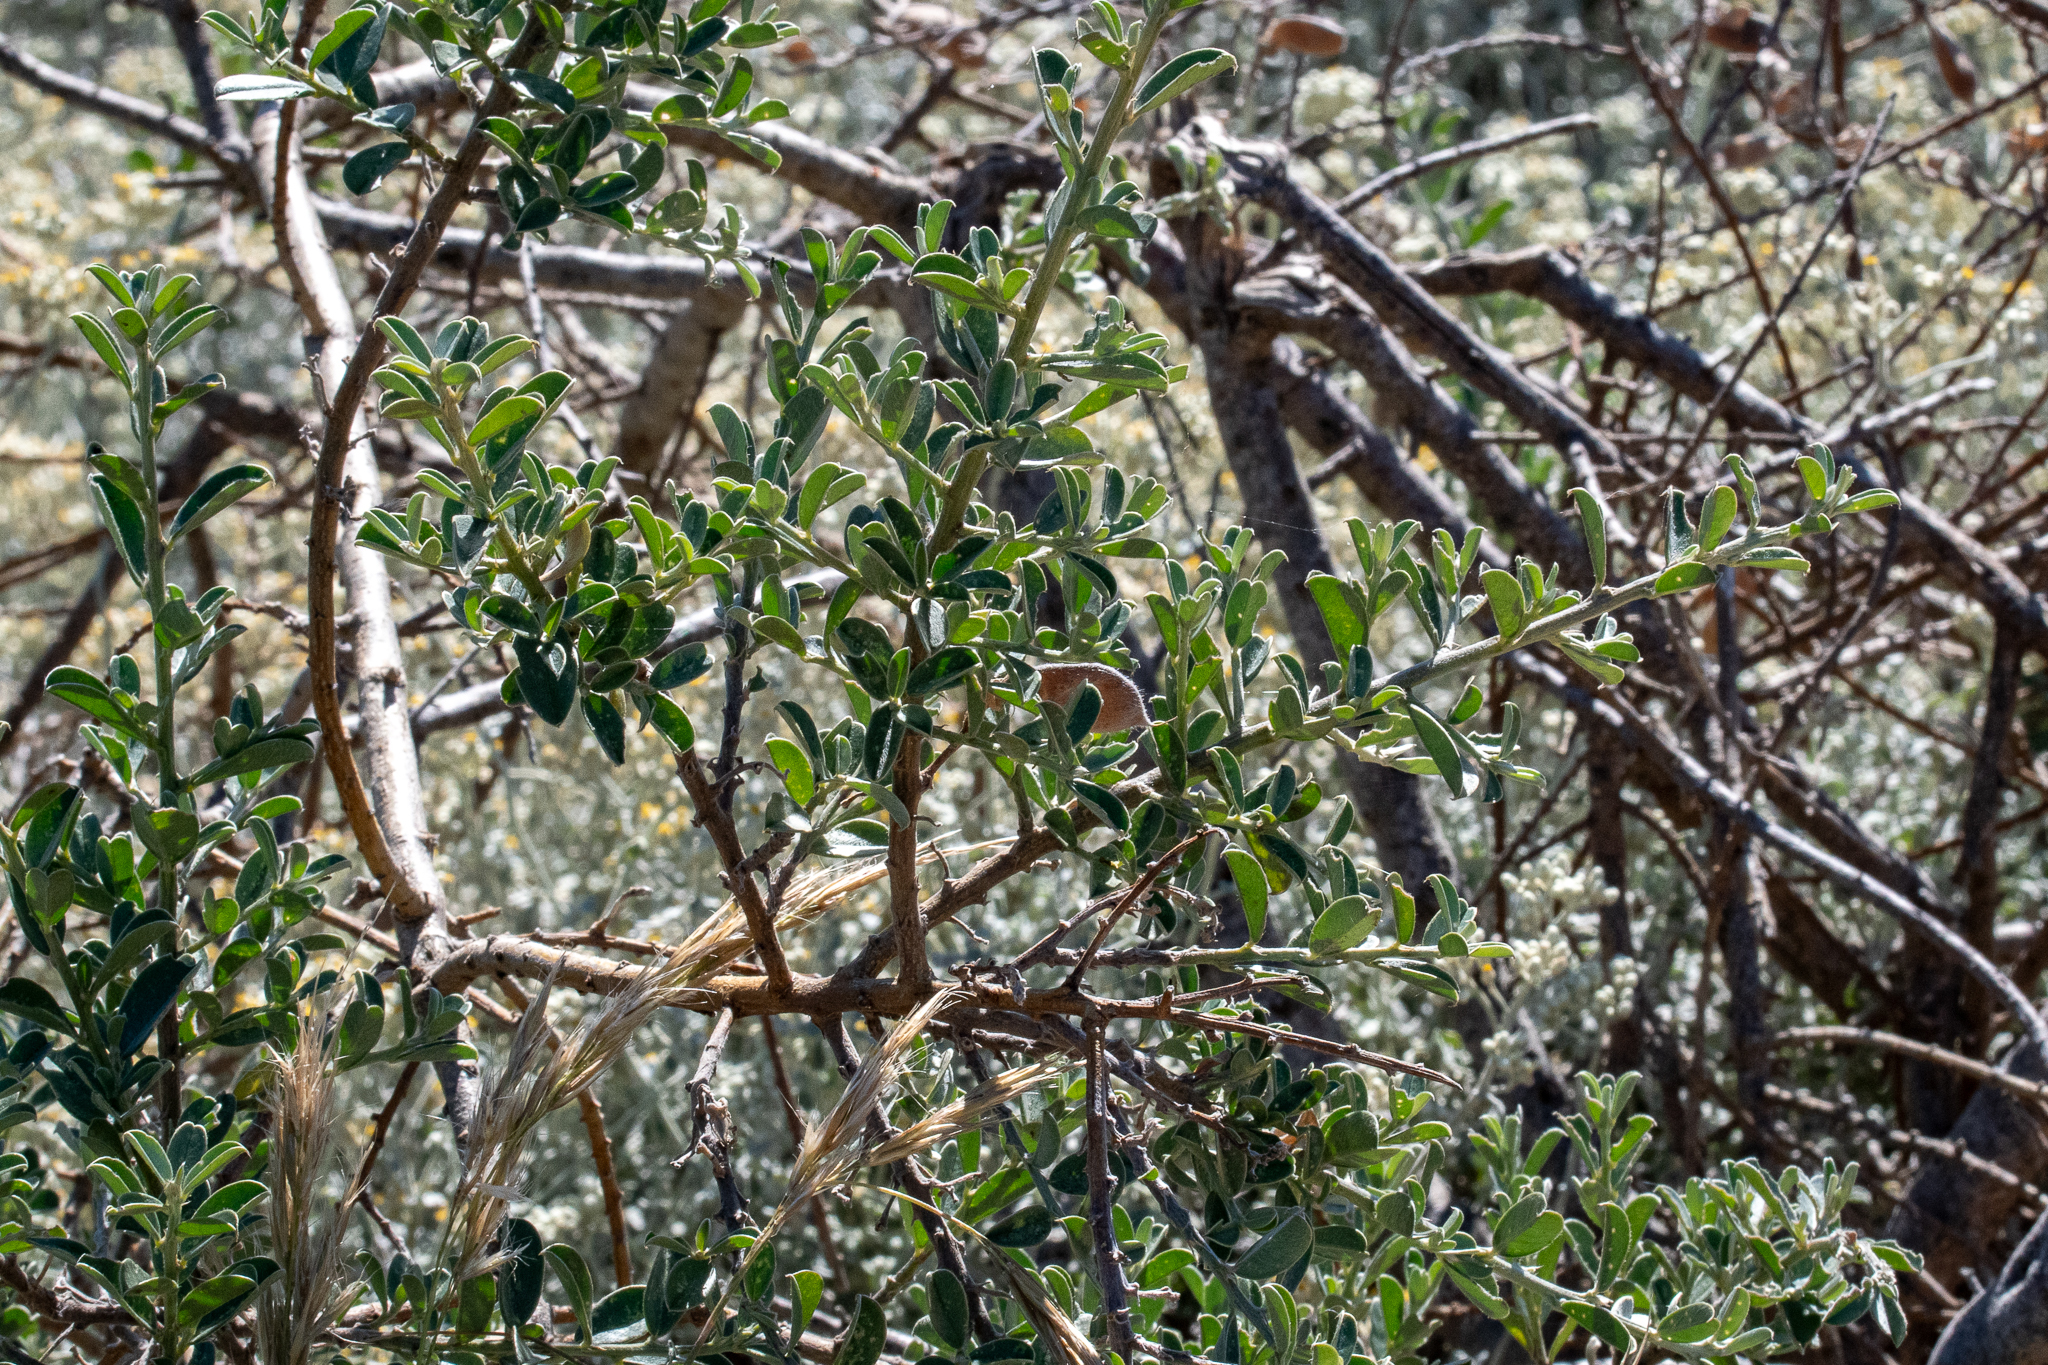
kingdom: Plantae
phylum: Tracheophyta
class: Magnoliopsida
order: Fabales
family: Fabaceae
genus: Podalyria
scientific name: Podalyria myrtillifolia
